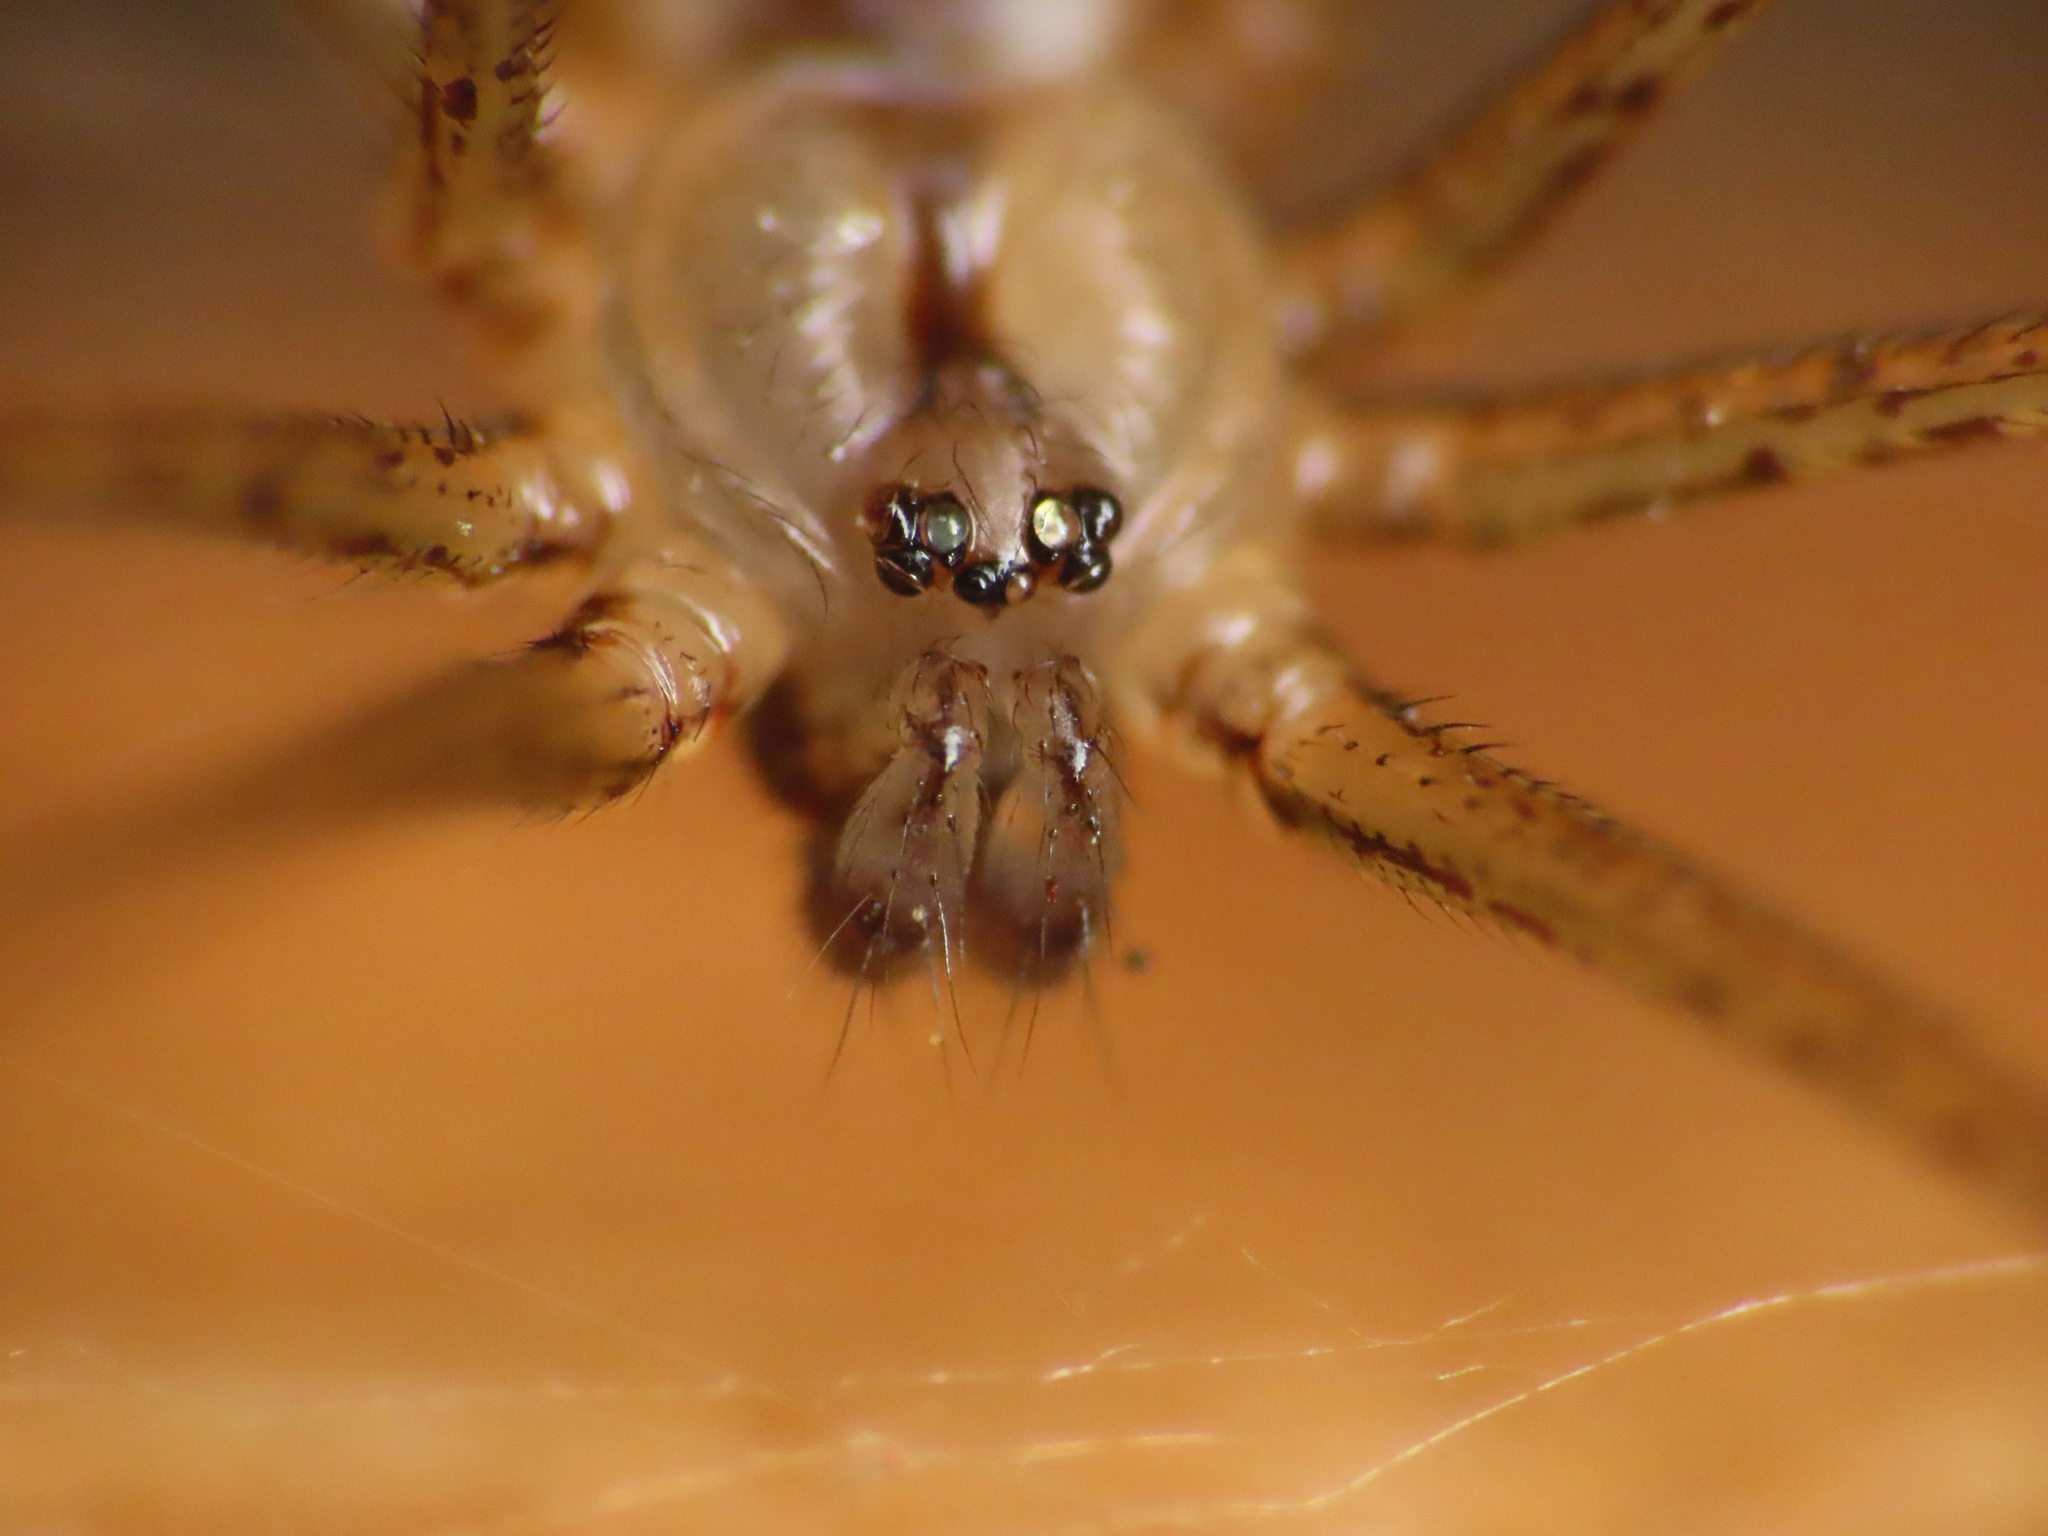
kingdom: Animalia
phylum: Arthropoda
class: Arachnida
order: Araneae
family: Pholcidae
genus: Holocnemus
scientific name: Holocnemus pluchei
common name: Marbled cellar spider
